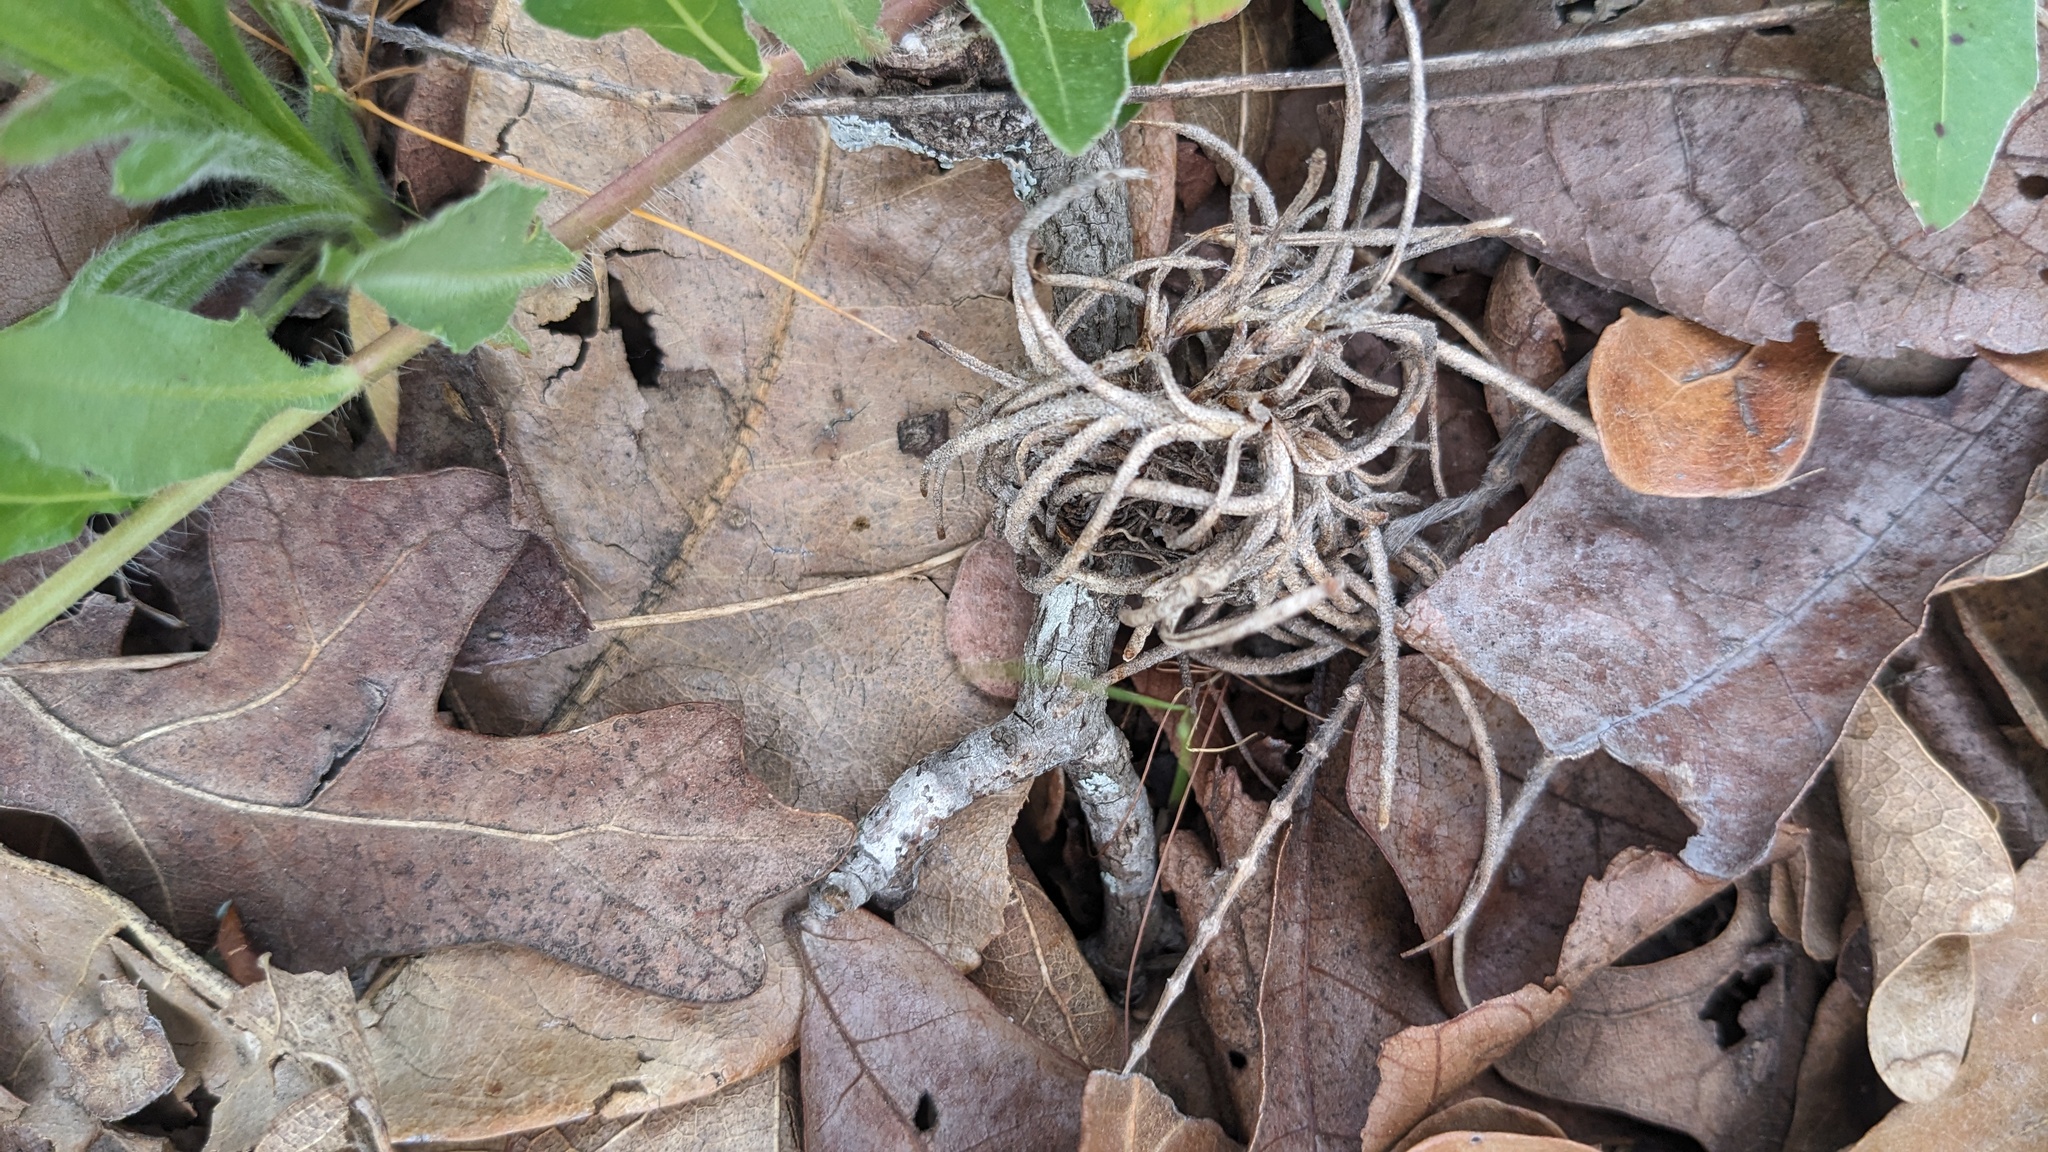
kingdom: Plantae
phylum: Tracheophyta
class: Liliopsida
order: Poales
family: Bromeliaceae
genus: Tillandsia
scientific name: Tillandsia recurvata
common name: Small ballmoss
